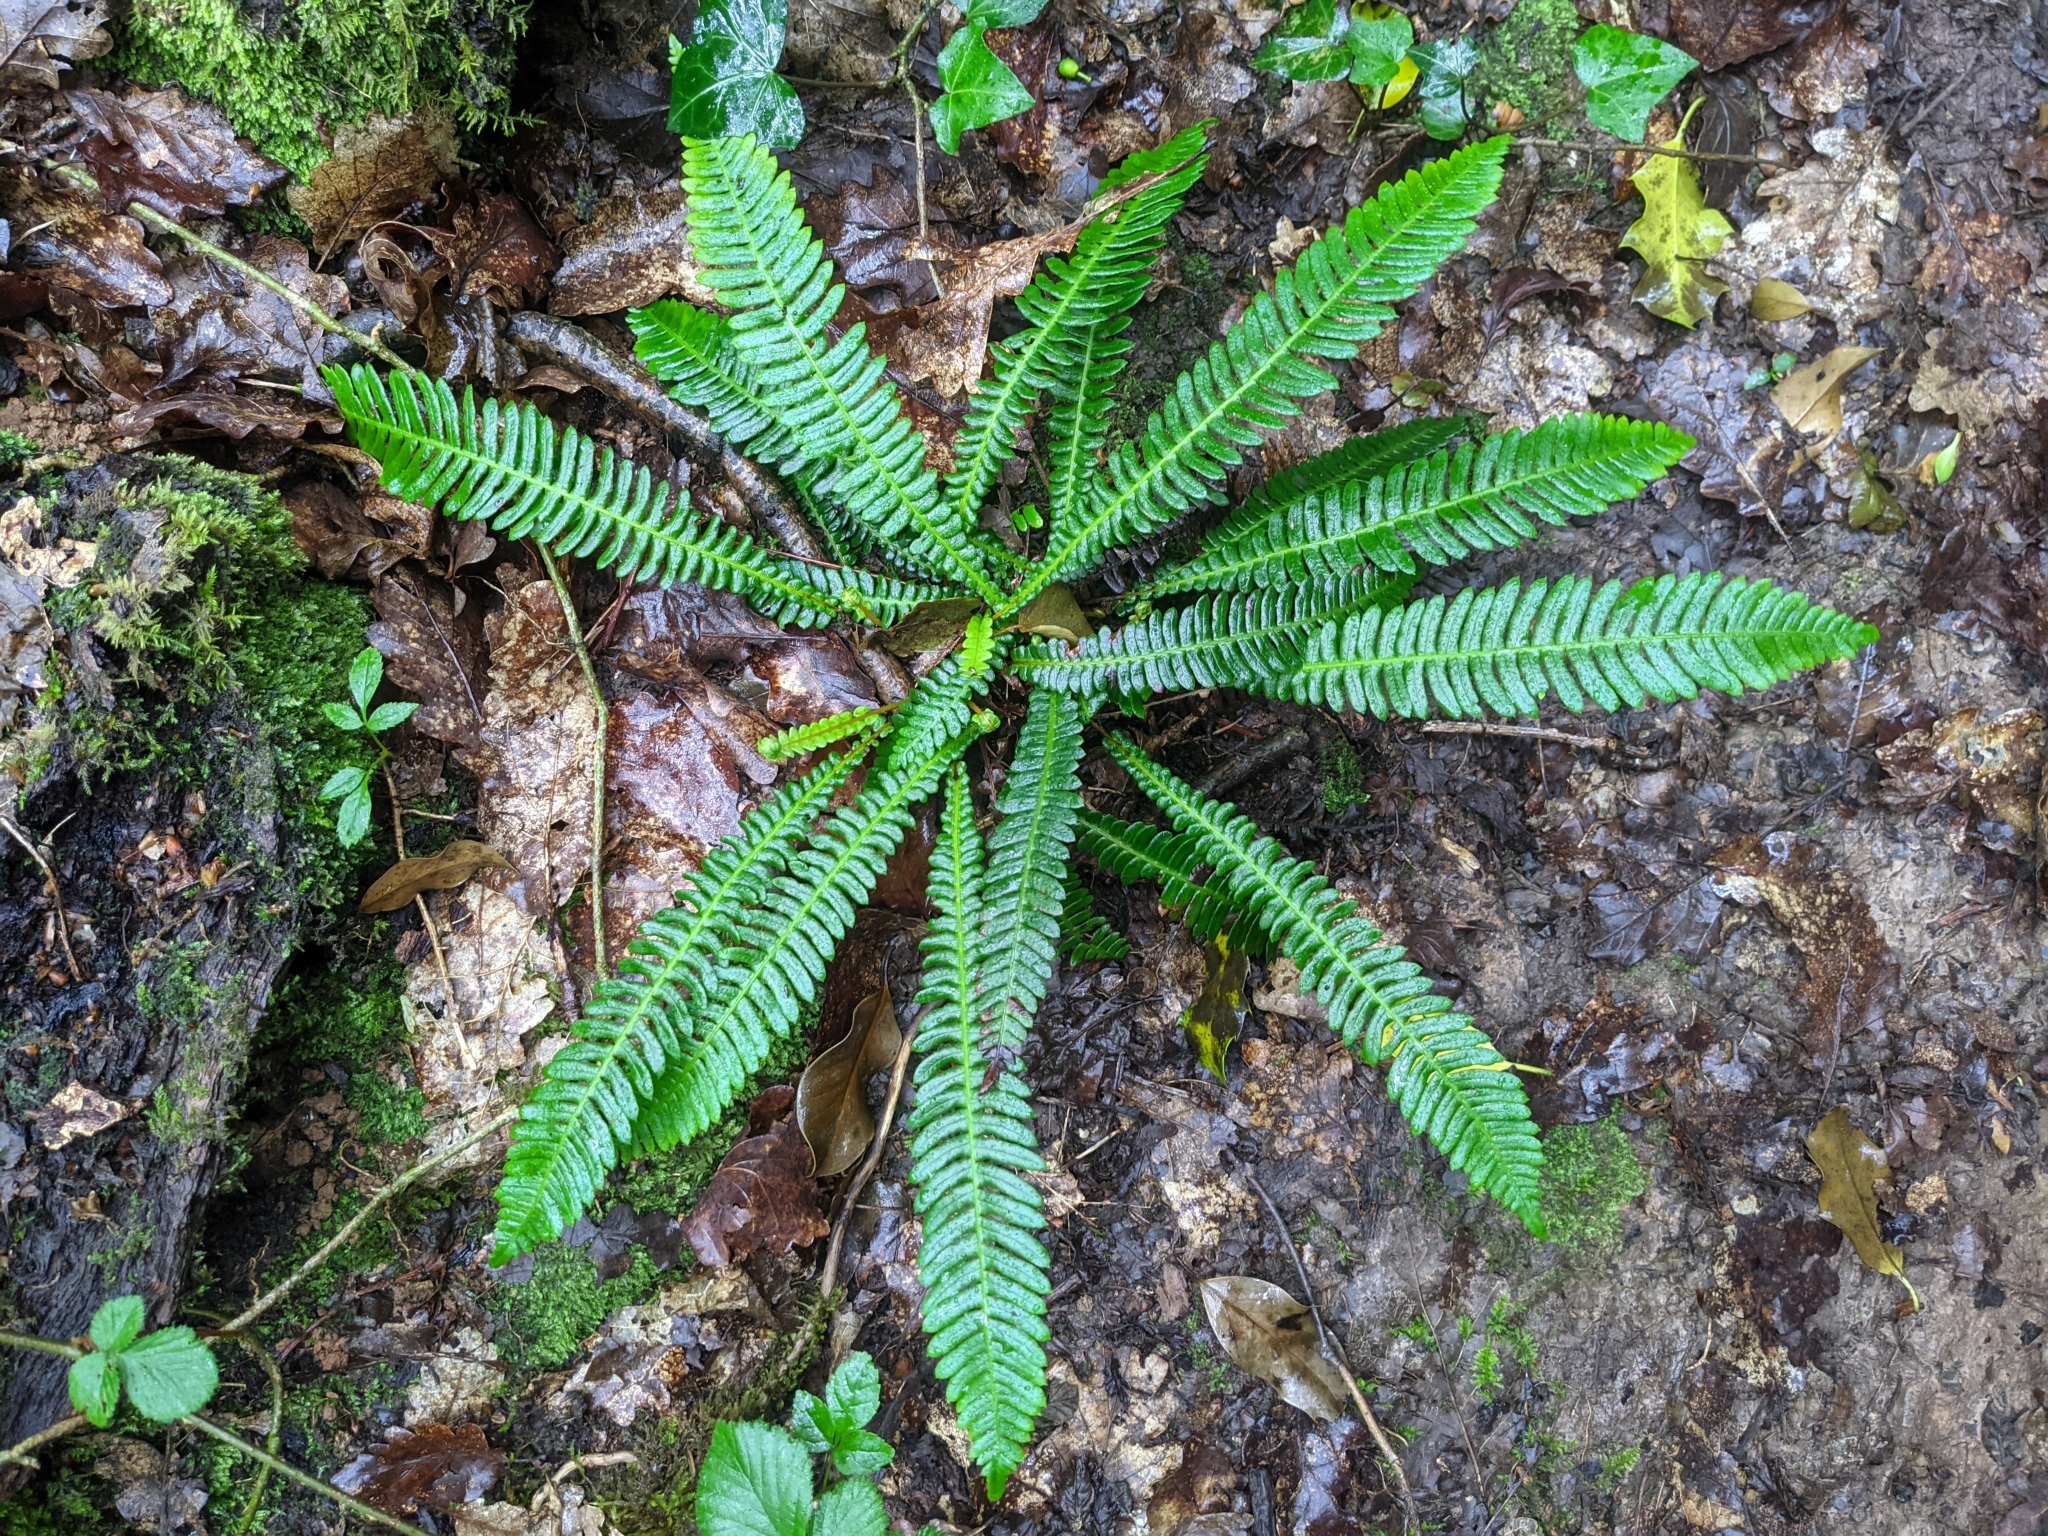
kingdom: Plantae
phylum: Tracheophyta
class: Polypodiopsida
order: Polypodiales
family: Blechnaceae
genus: Struthiopteris
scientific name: Struthiopteris spicant
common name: Deer fern
